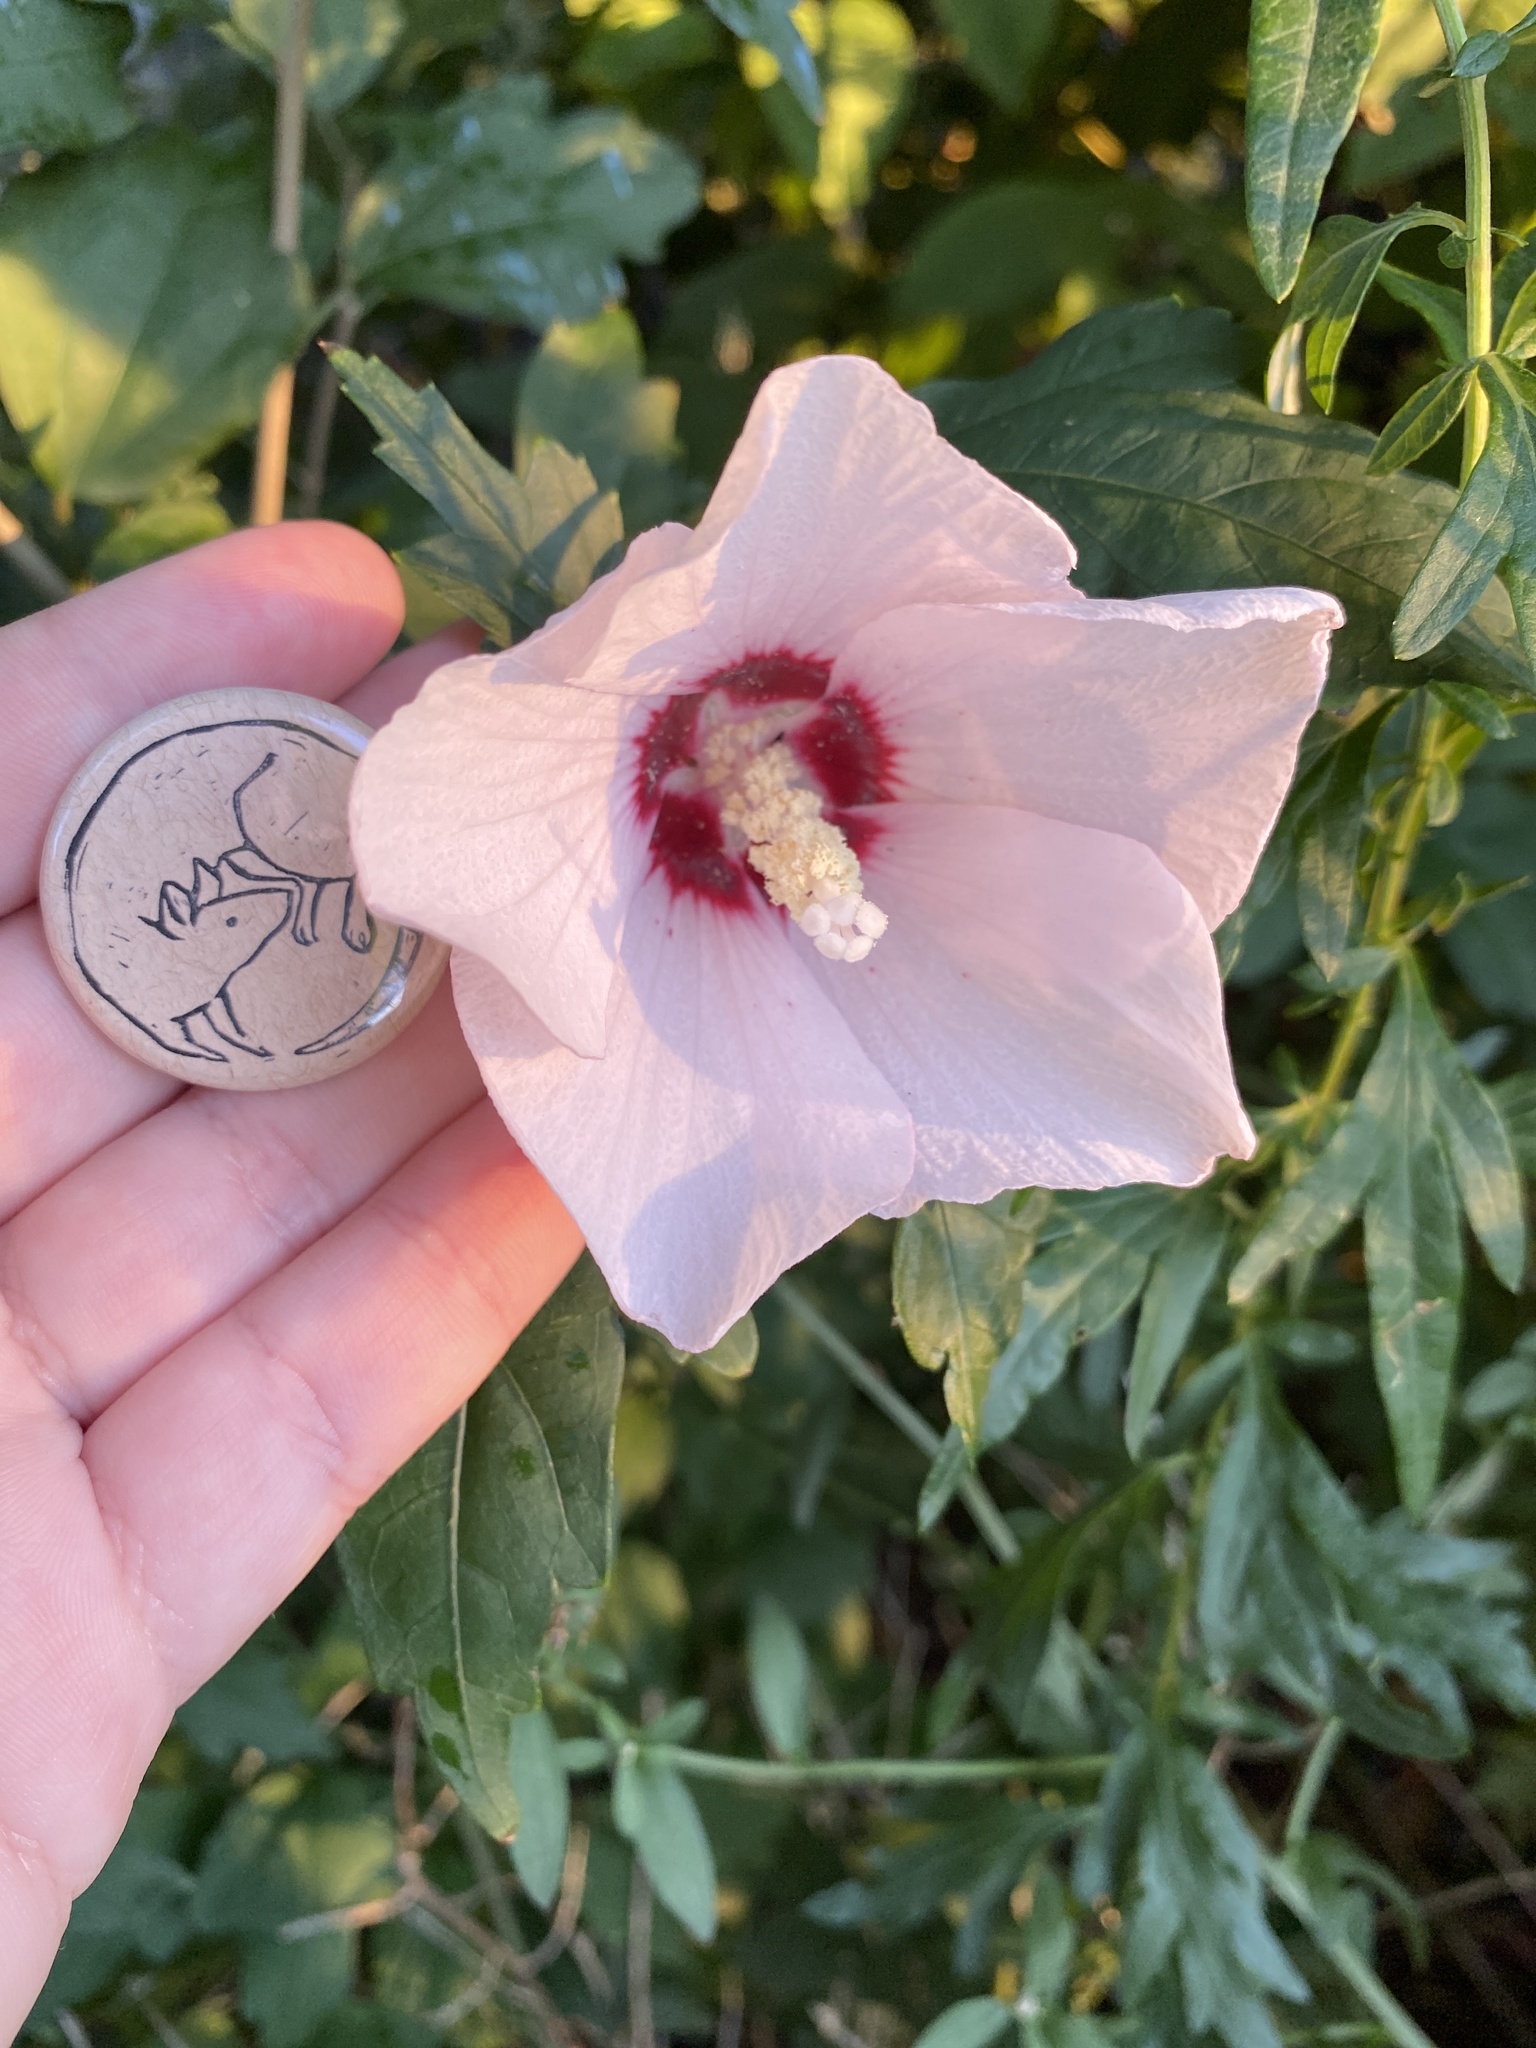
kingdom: Plantae
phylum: Tracheophyta
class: Magnoliopsida
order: Malvales
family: Malvaceae
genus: Hibiscus
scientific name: Hibiscus syriacus
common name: Syrian ketmia
